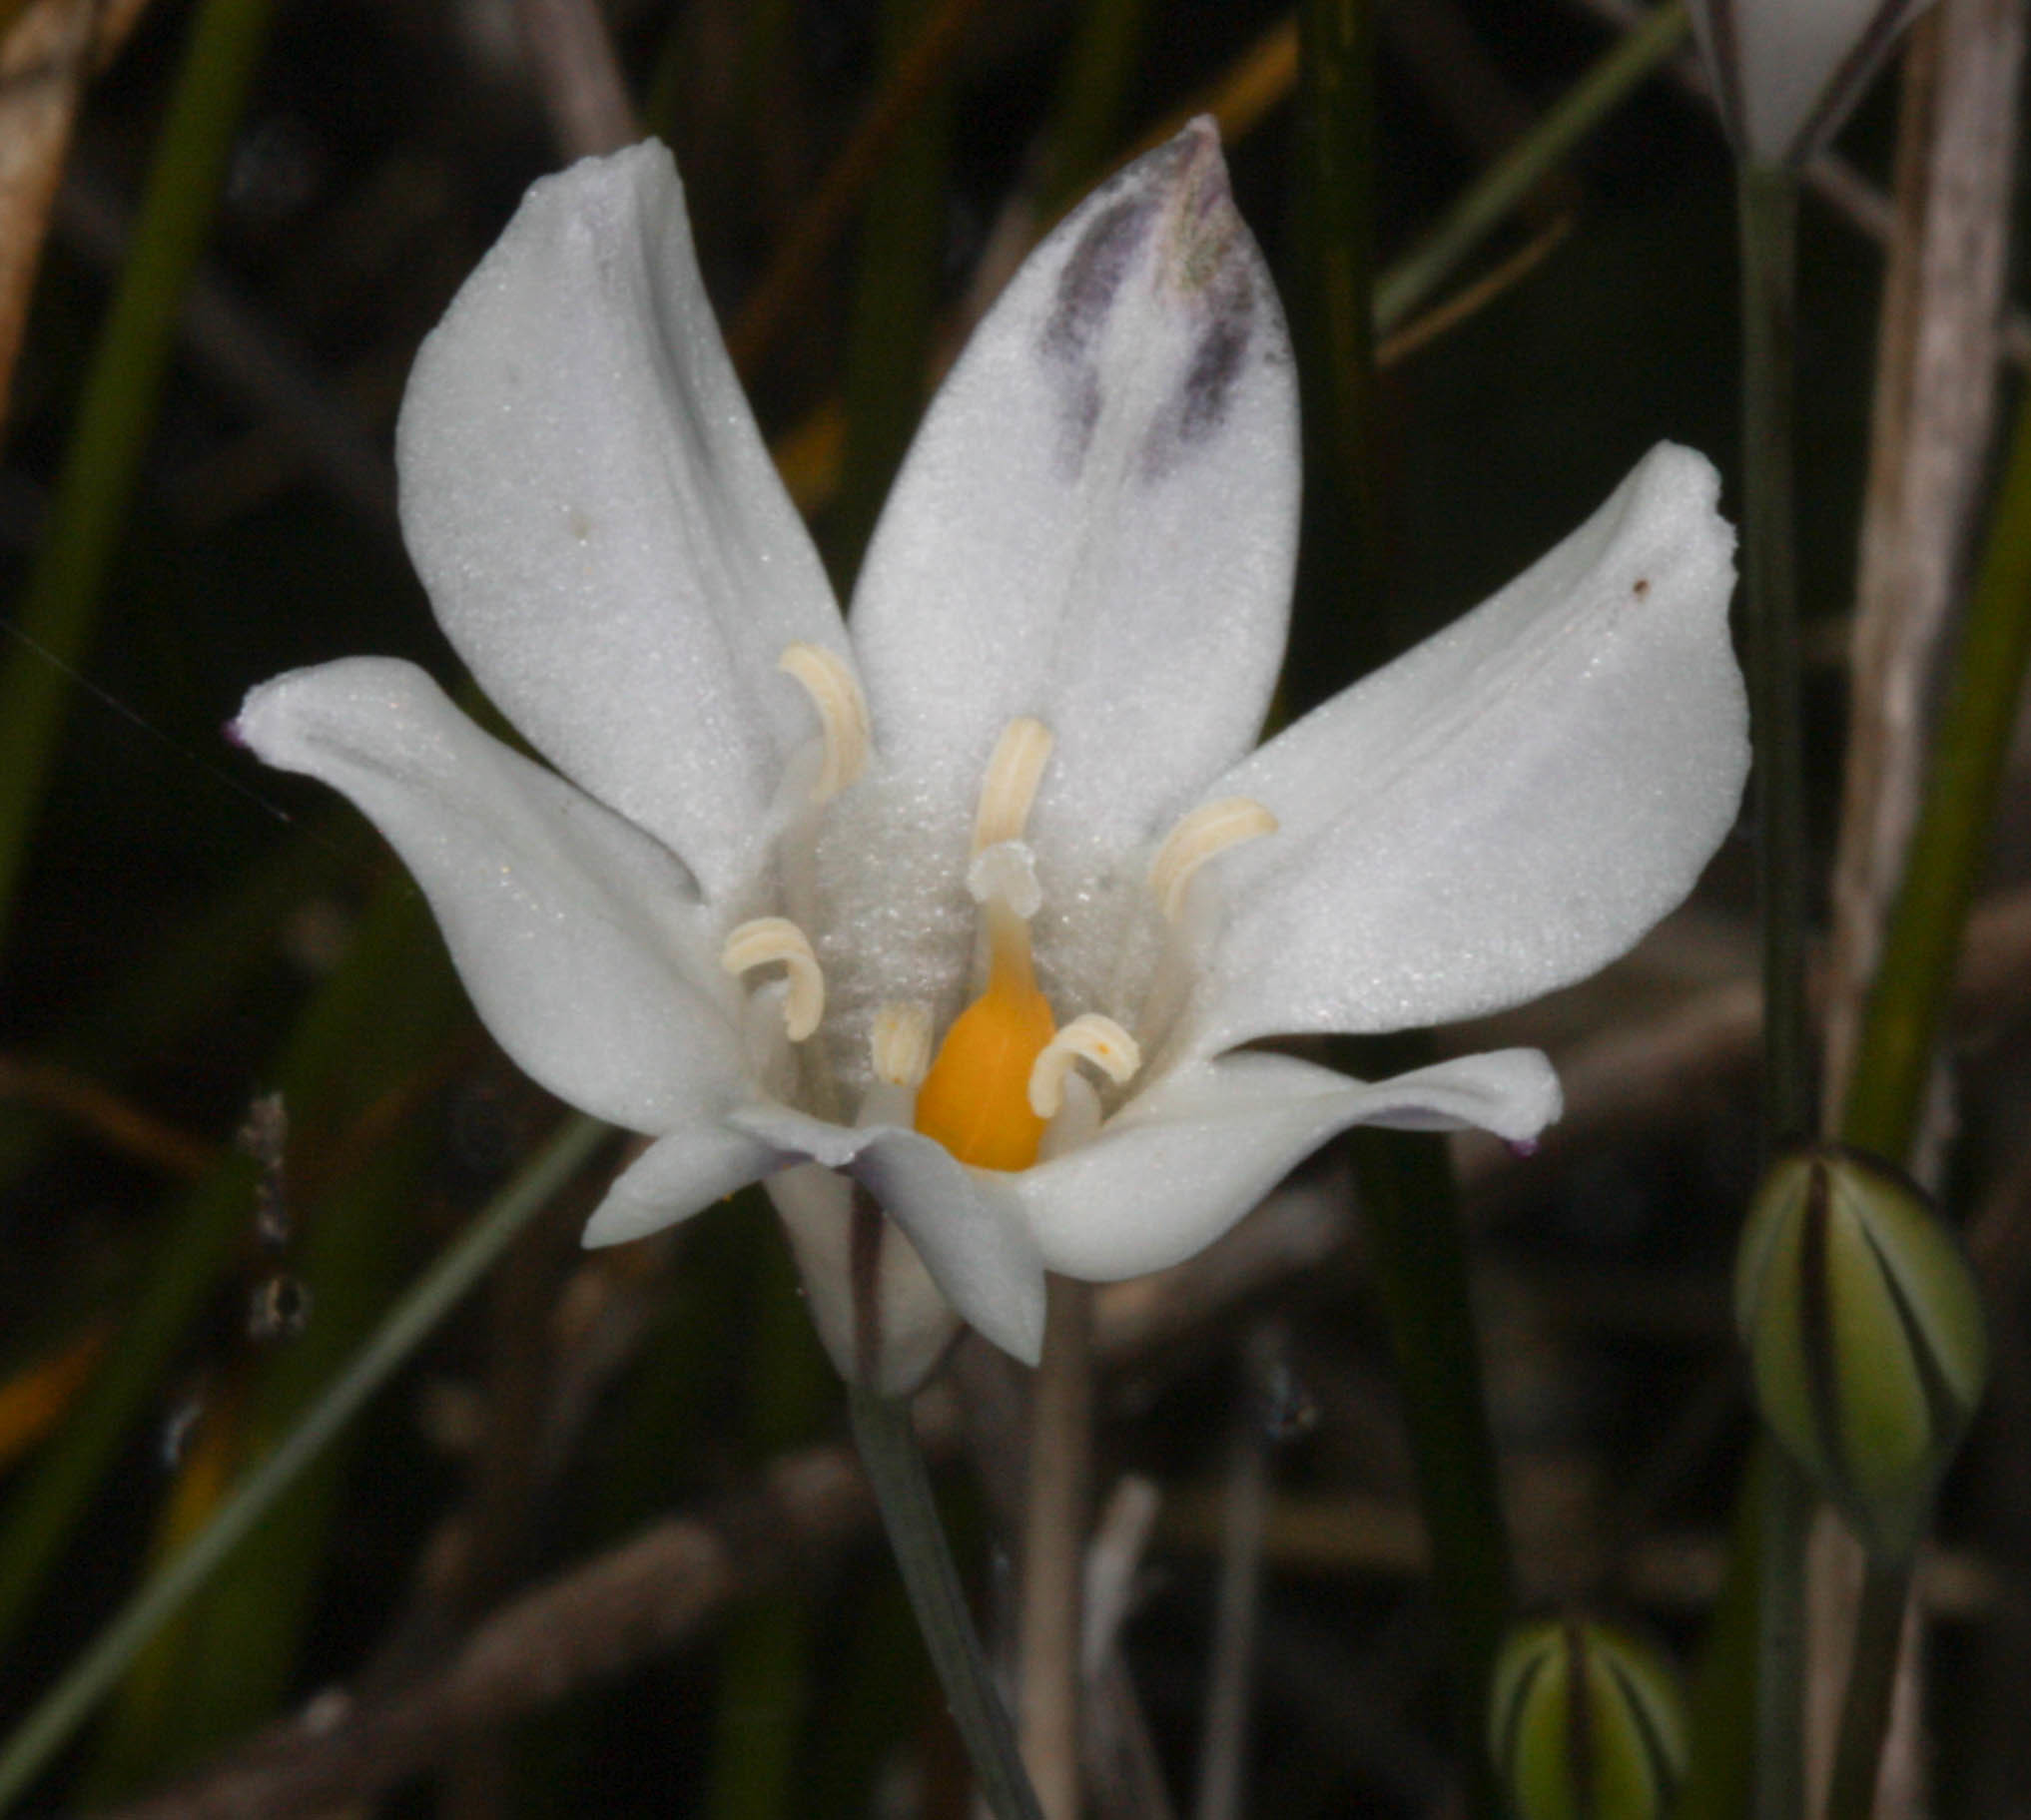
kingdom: Plantae
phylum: Tracheophyta
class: Liliopsida
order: Asparagales
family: Asparagaceae
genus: Triteleia
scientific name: Triteleia peduncularis
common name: Long-ray brodiaea
